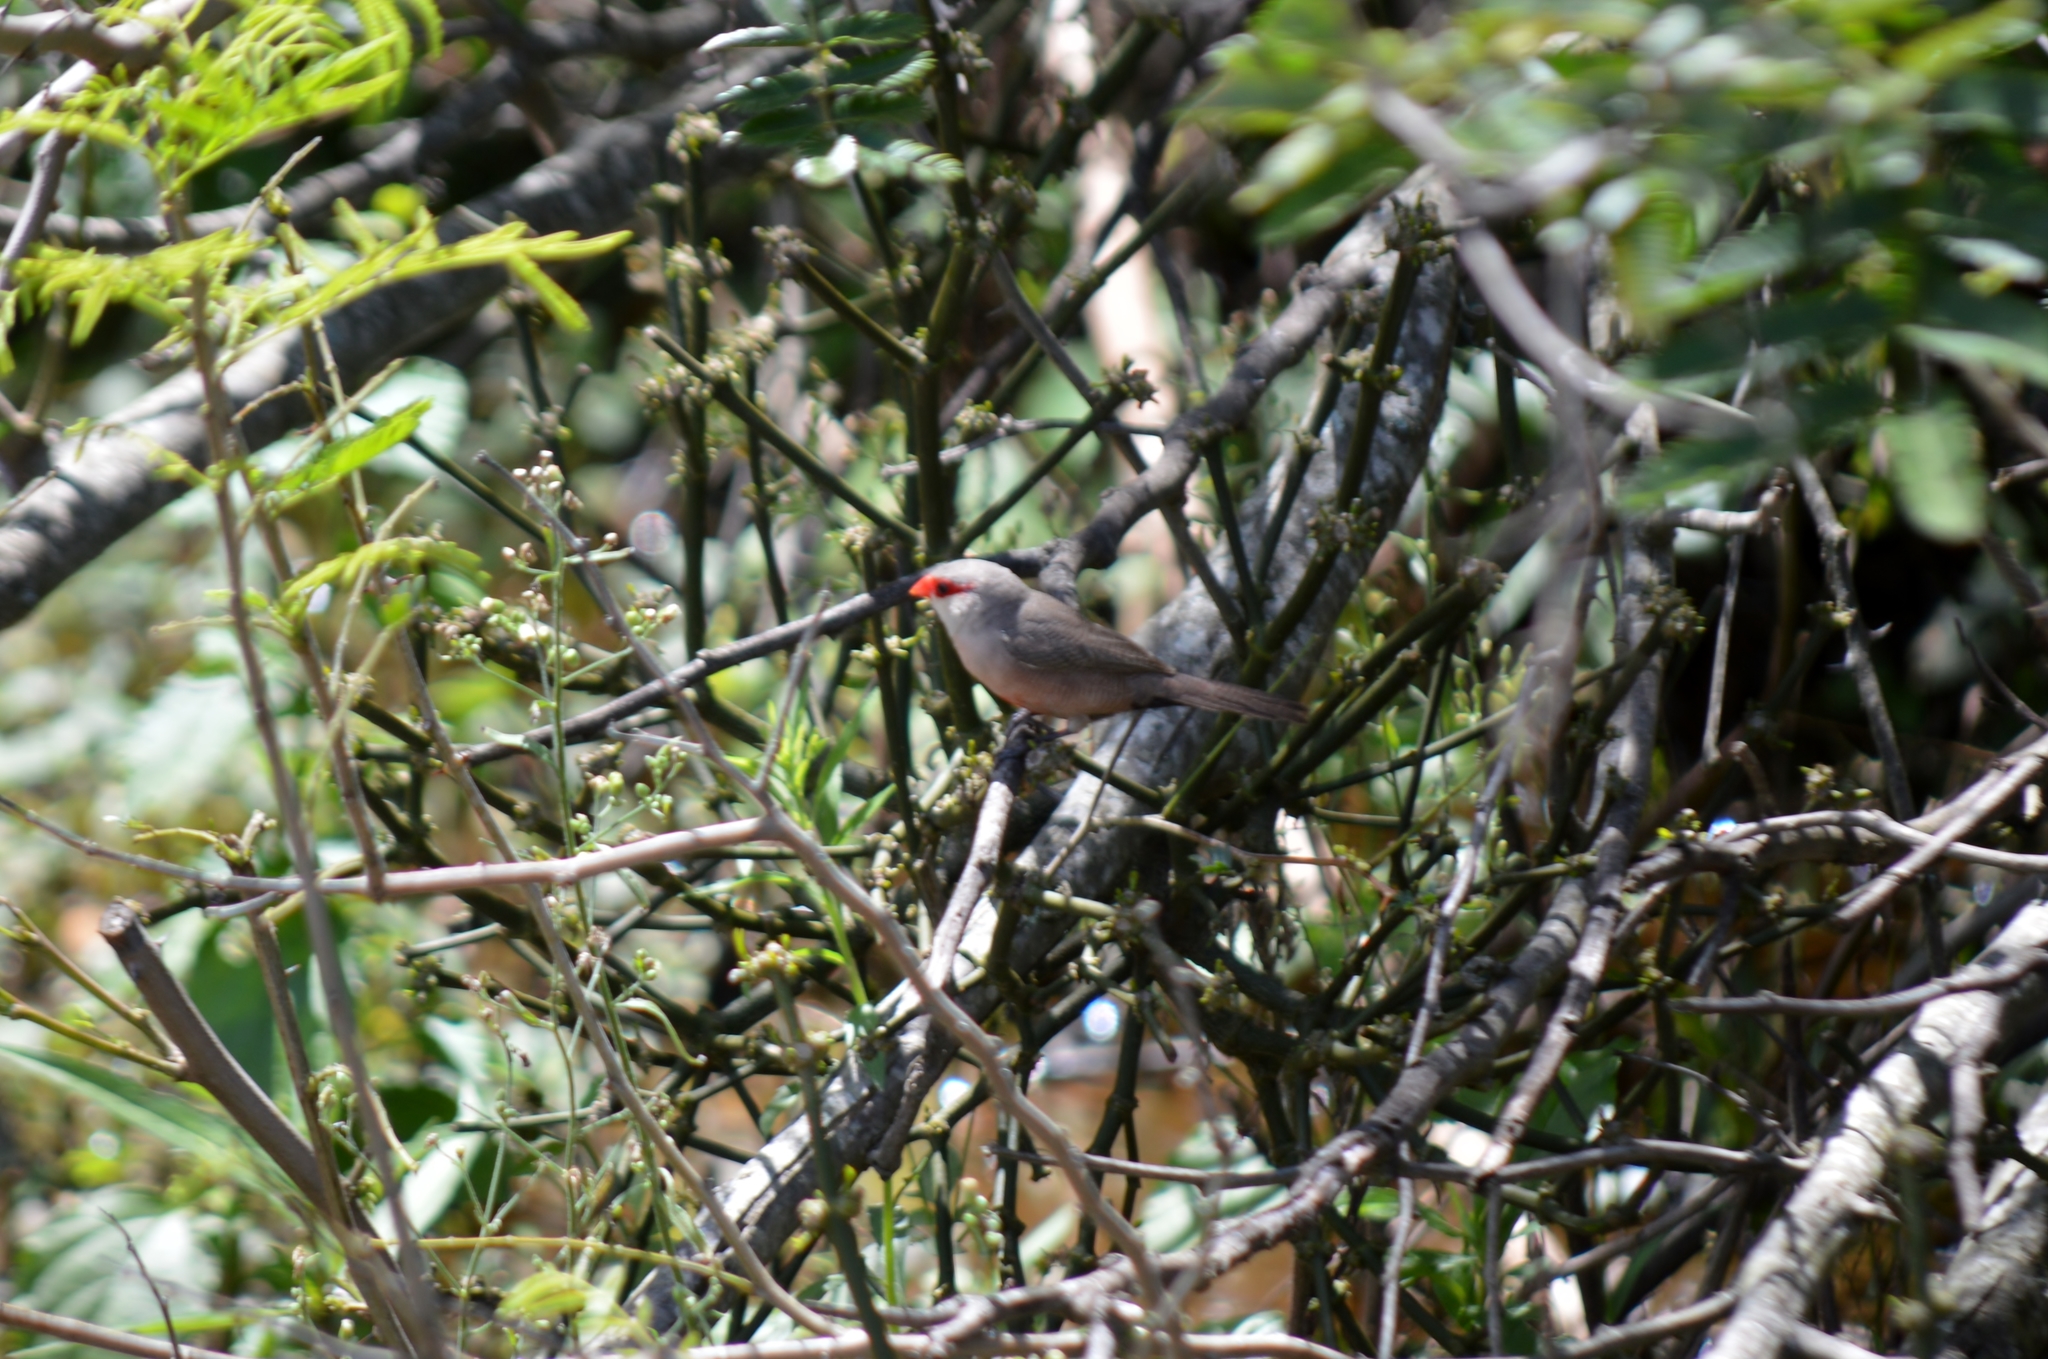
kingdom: Animalia
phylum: Chordata
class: Aves
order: Passeriformes
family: Estrildidae
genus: Estrilda
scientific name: Estrilda astrild
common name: Common waxbill
